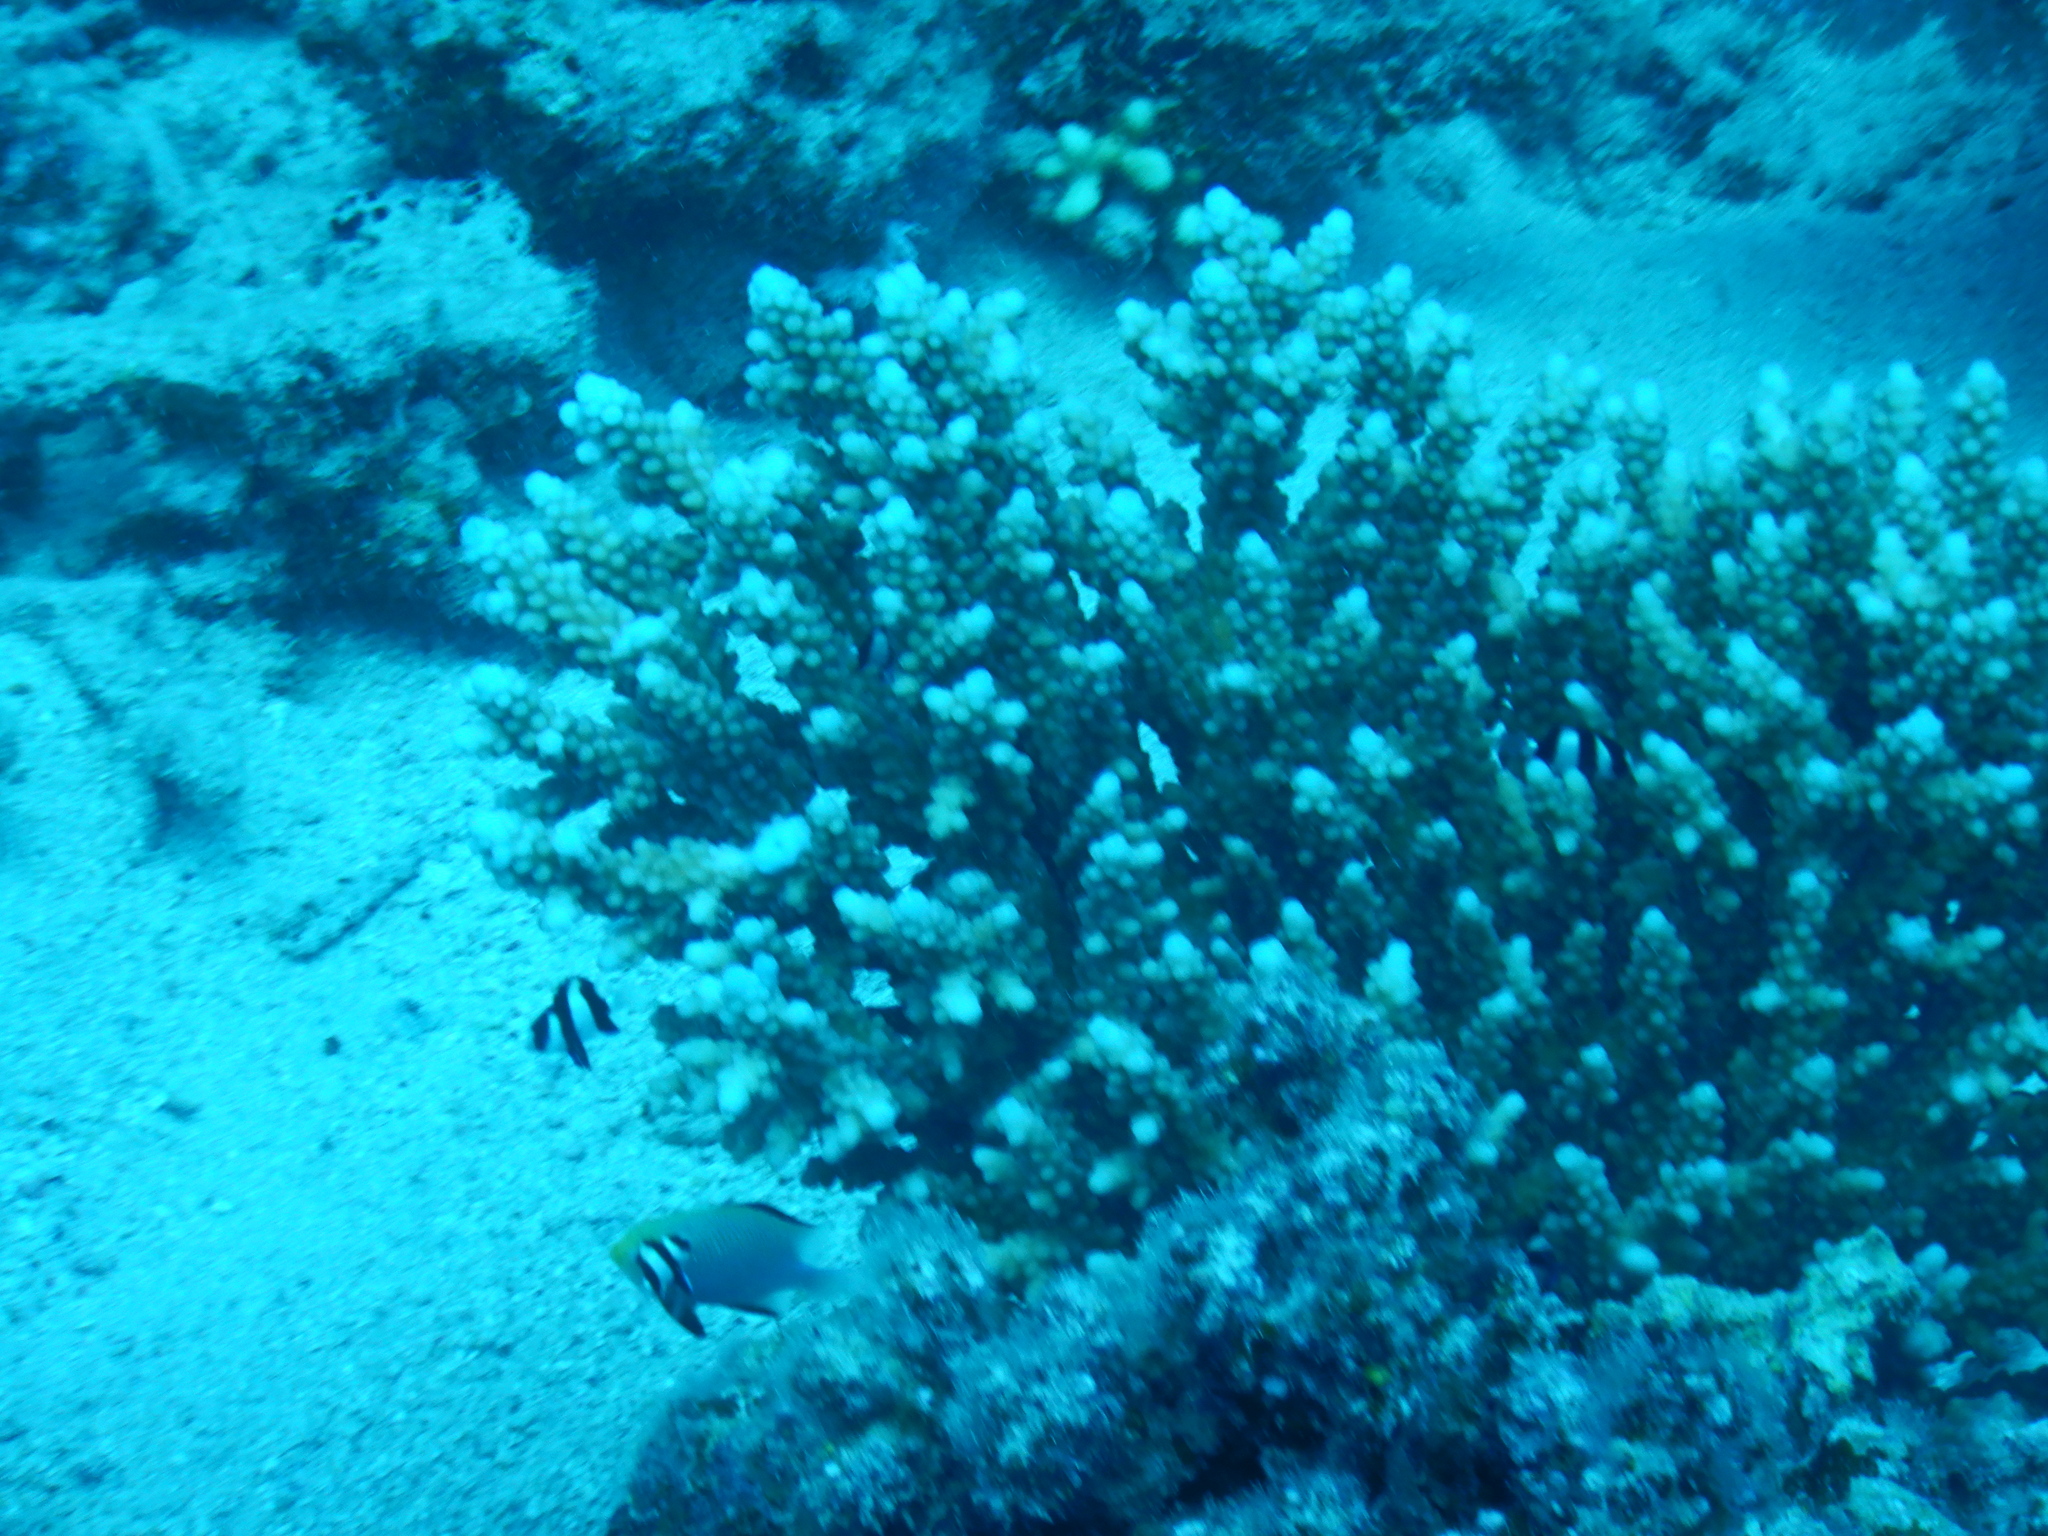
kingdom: Animalia
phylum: Chordata
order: Perciformes
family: Pomacentridae
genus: Dascyllus
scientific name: Dascyllus marginatus
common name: Red sea dascyllus
